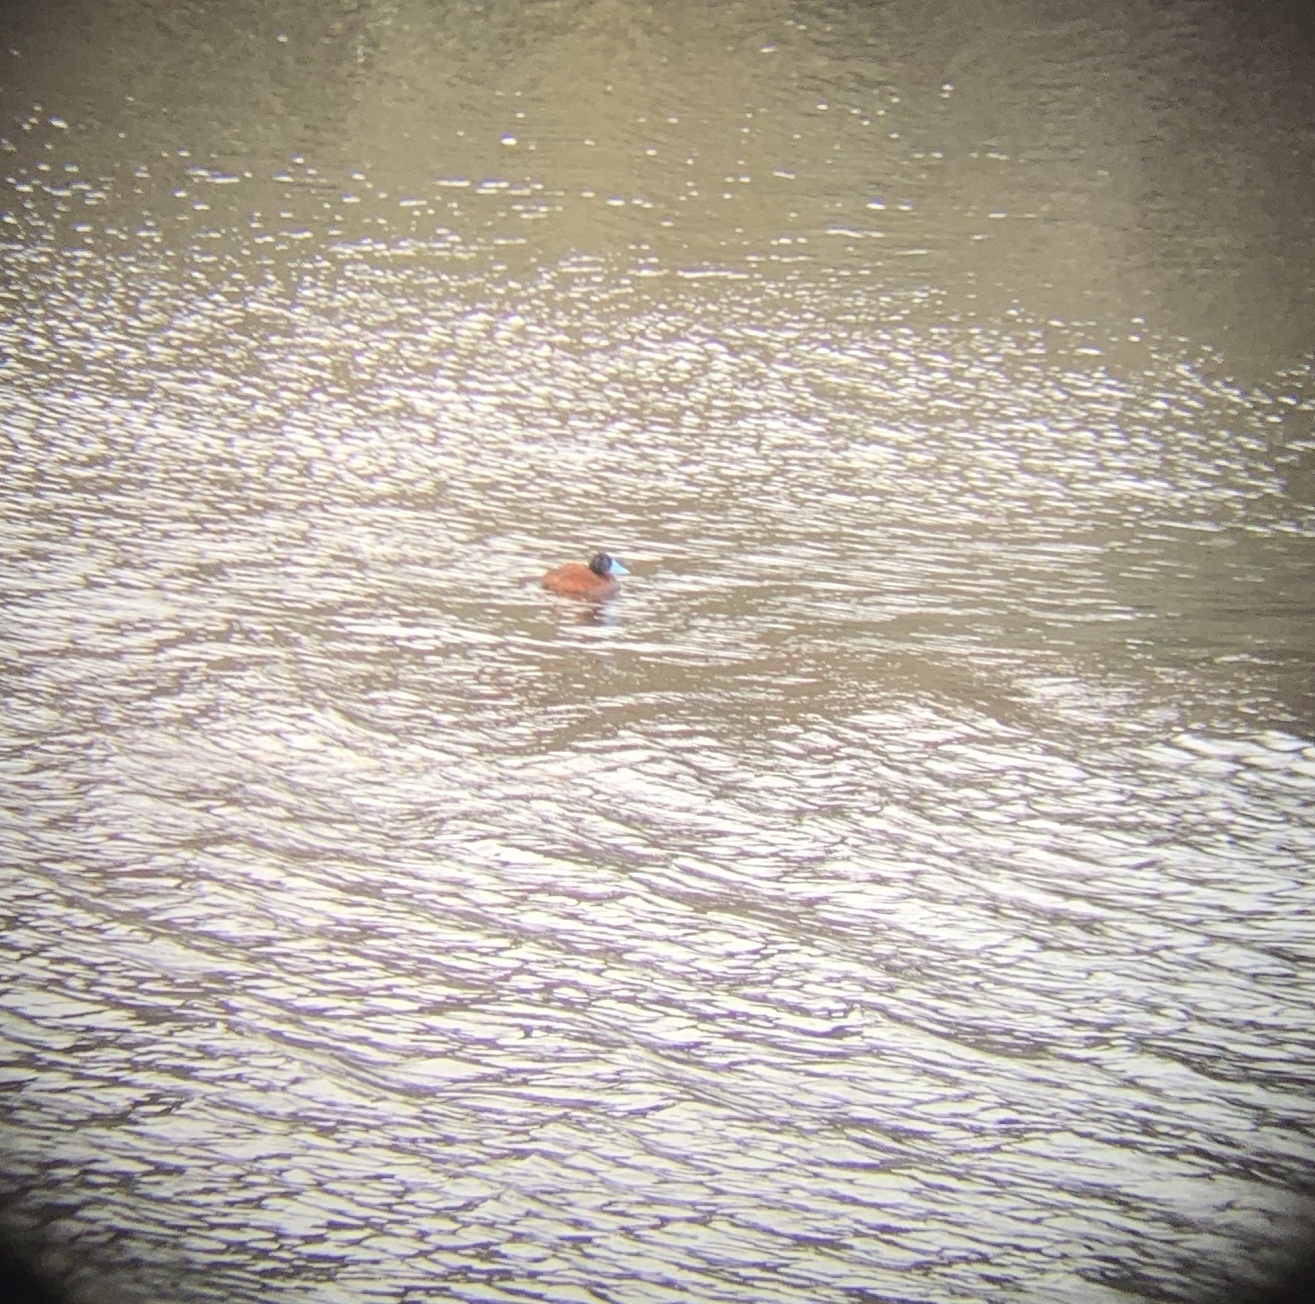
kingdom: Animalia
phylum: Chordata
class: Aves
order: Anseriformes
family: Anatidae
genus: Oxyura
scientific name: Oxyura ferruginea
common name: Andean duck
